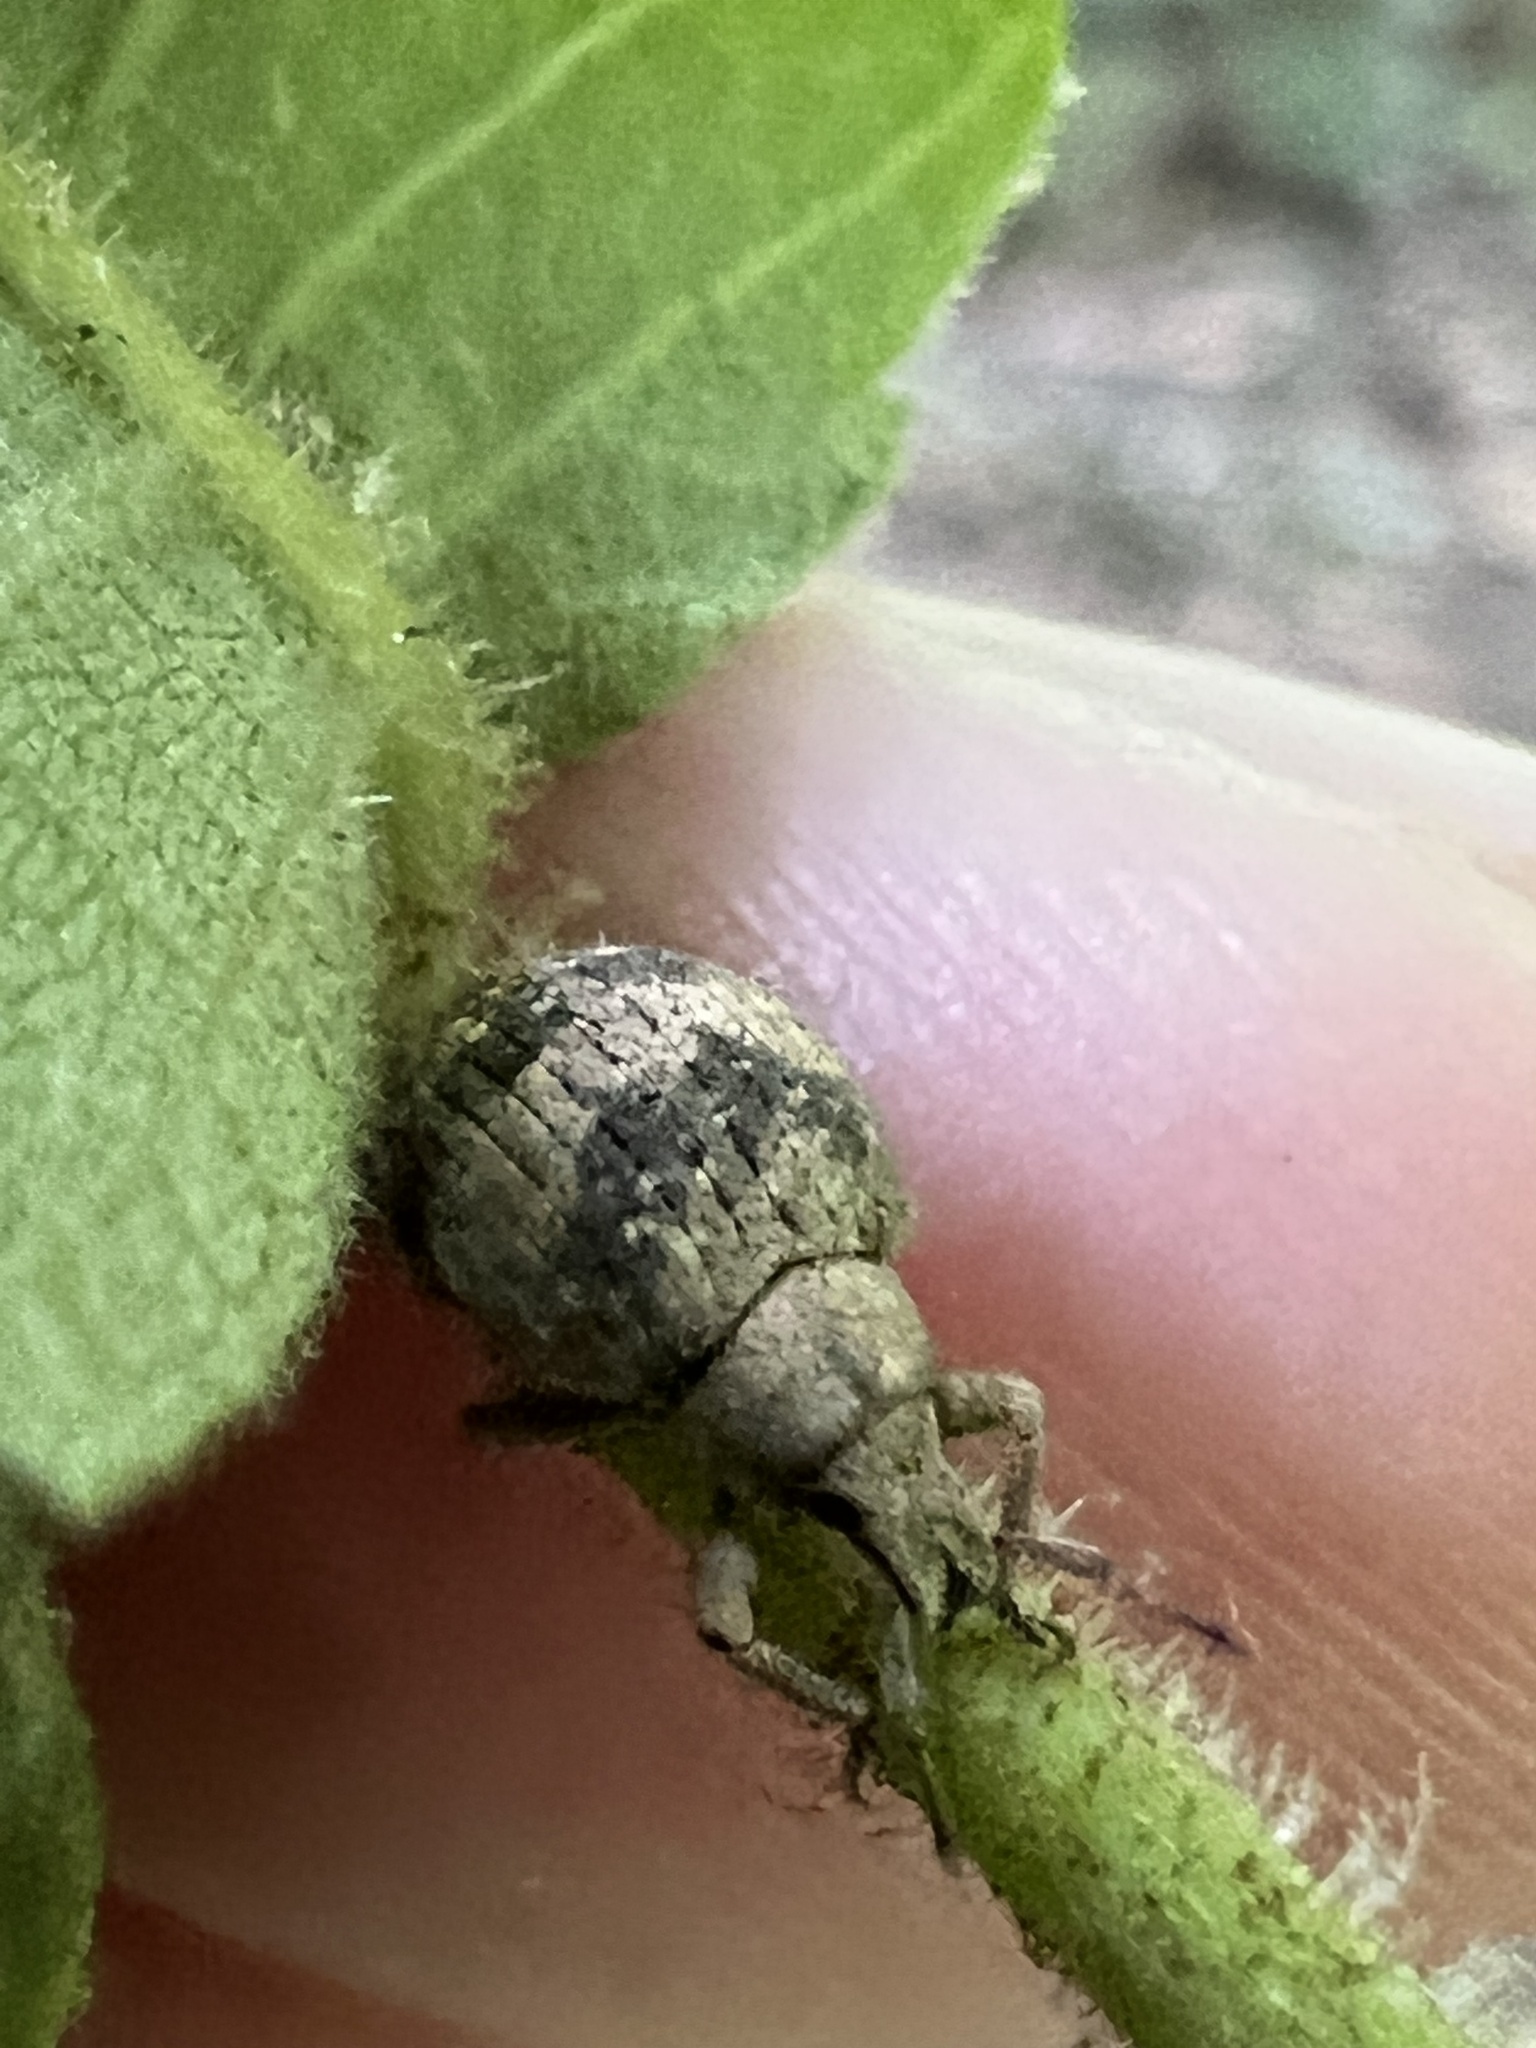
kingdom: Animalia
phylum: Arthropoda
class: Insecta
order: Coleoptera
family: Curculionidae
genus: Pseudocneorhinus
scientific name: Pseudocneorhinus bifasciatus
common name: Two-banded japanese weevil
